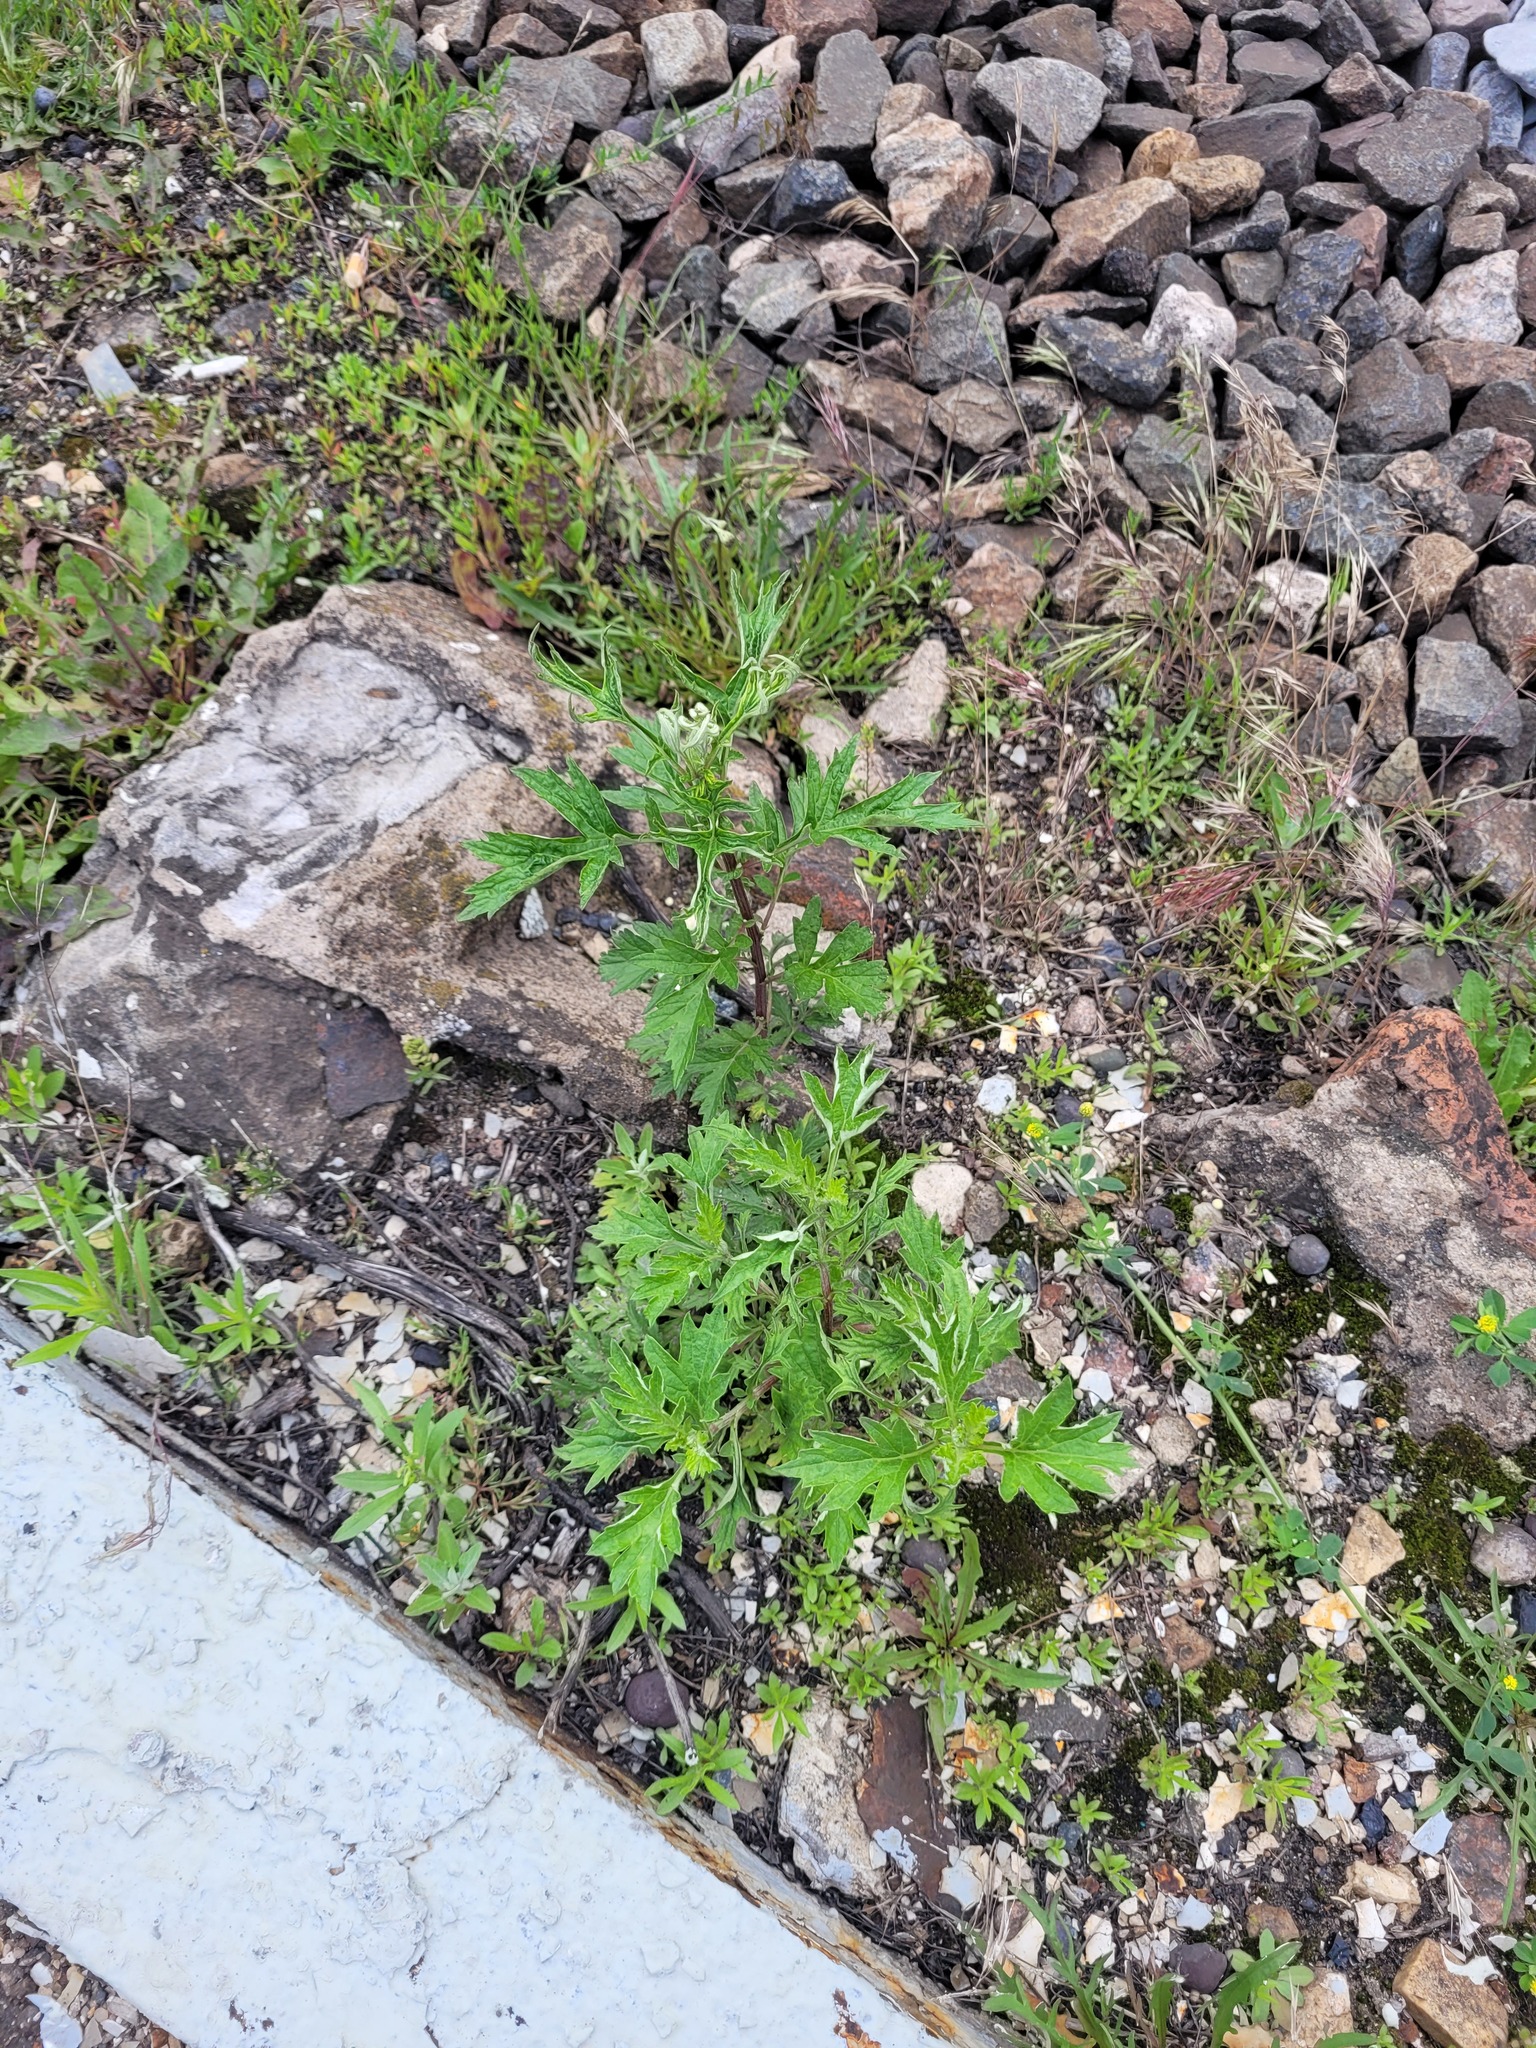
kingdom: Plantae
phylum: Tracheophyta
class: Magnoliopsida
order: Asterales
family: Asteraceae
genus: Artemisia
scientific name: Artemisia vulgaris
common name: Mugwort
